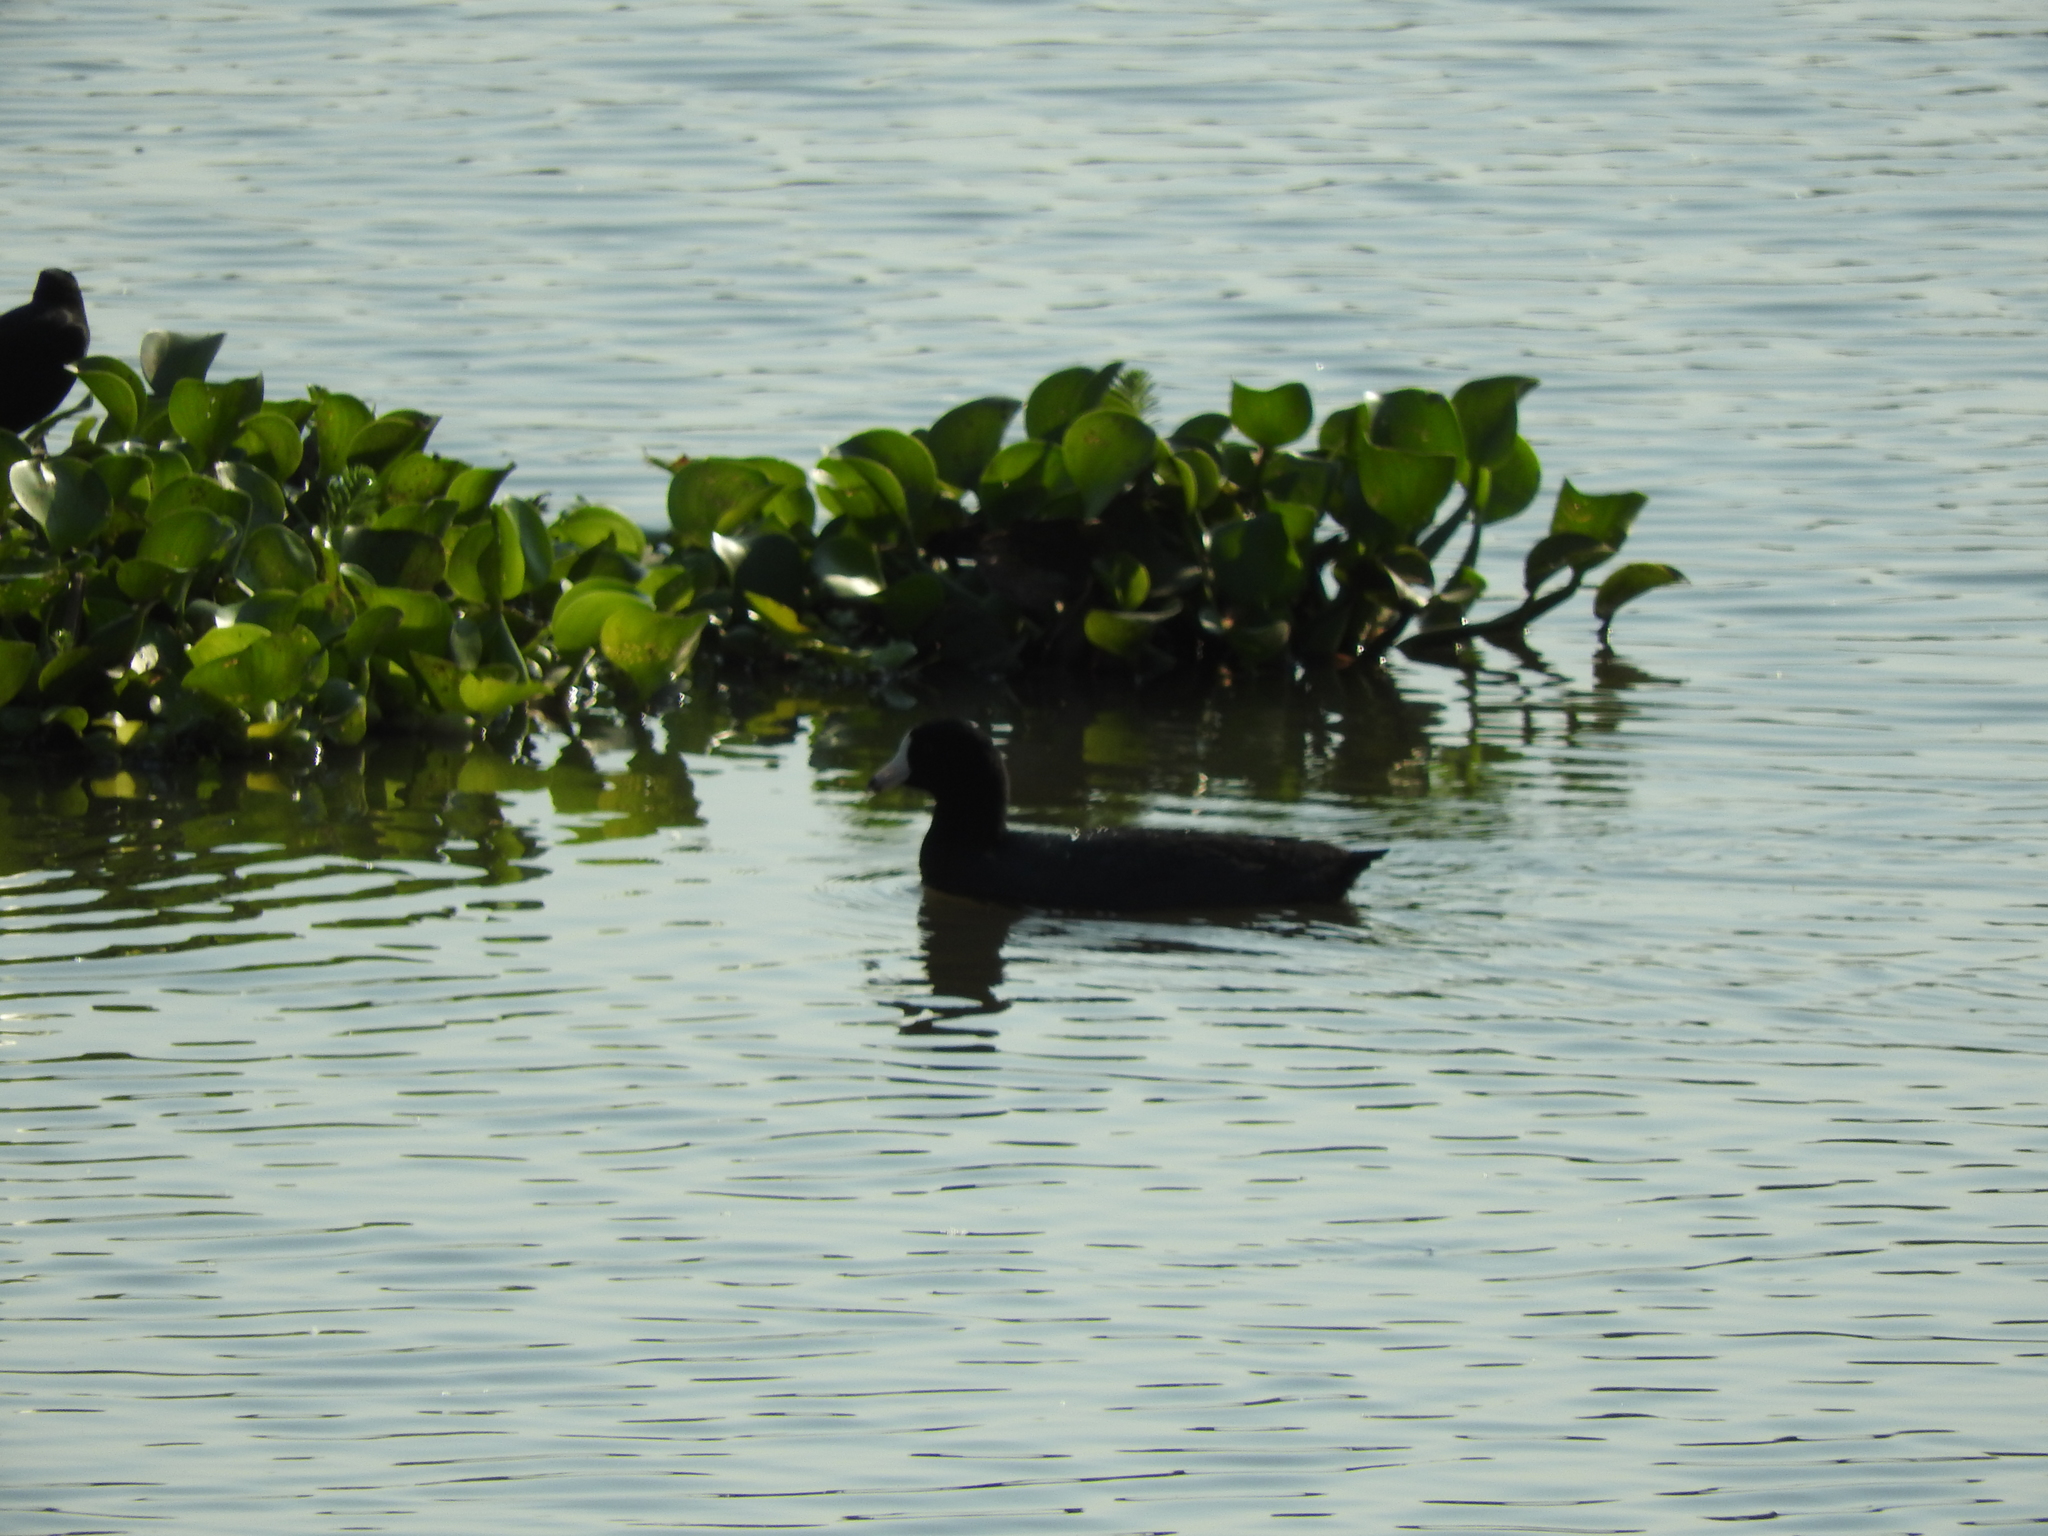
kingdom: Animalia
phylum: Chordata
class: Aves
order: Gruiformes
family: Rallidae
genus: Fulica
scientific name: Fulica americana
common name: American coot
